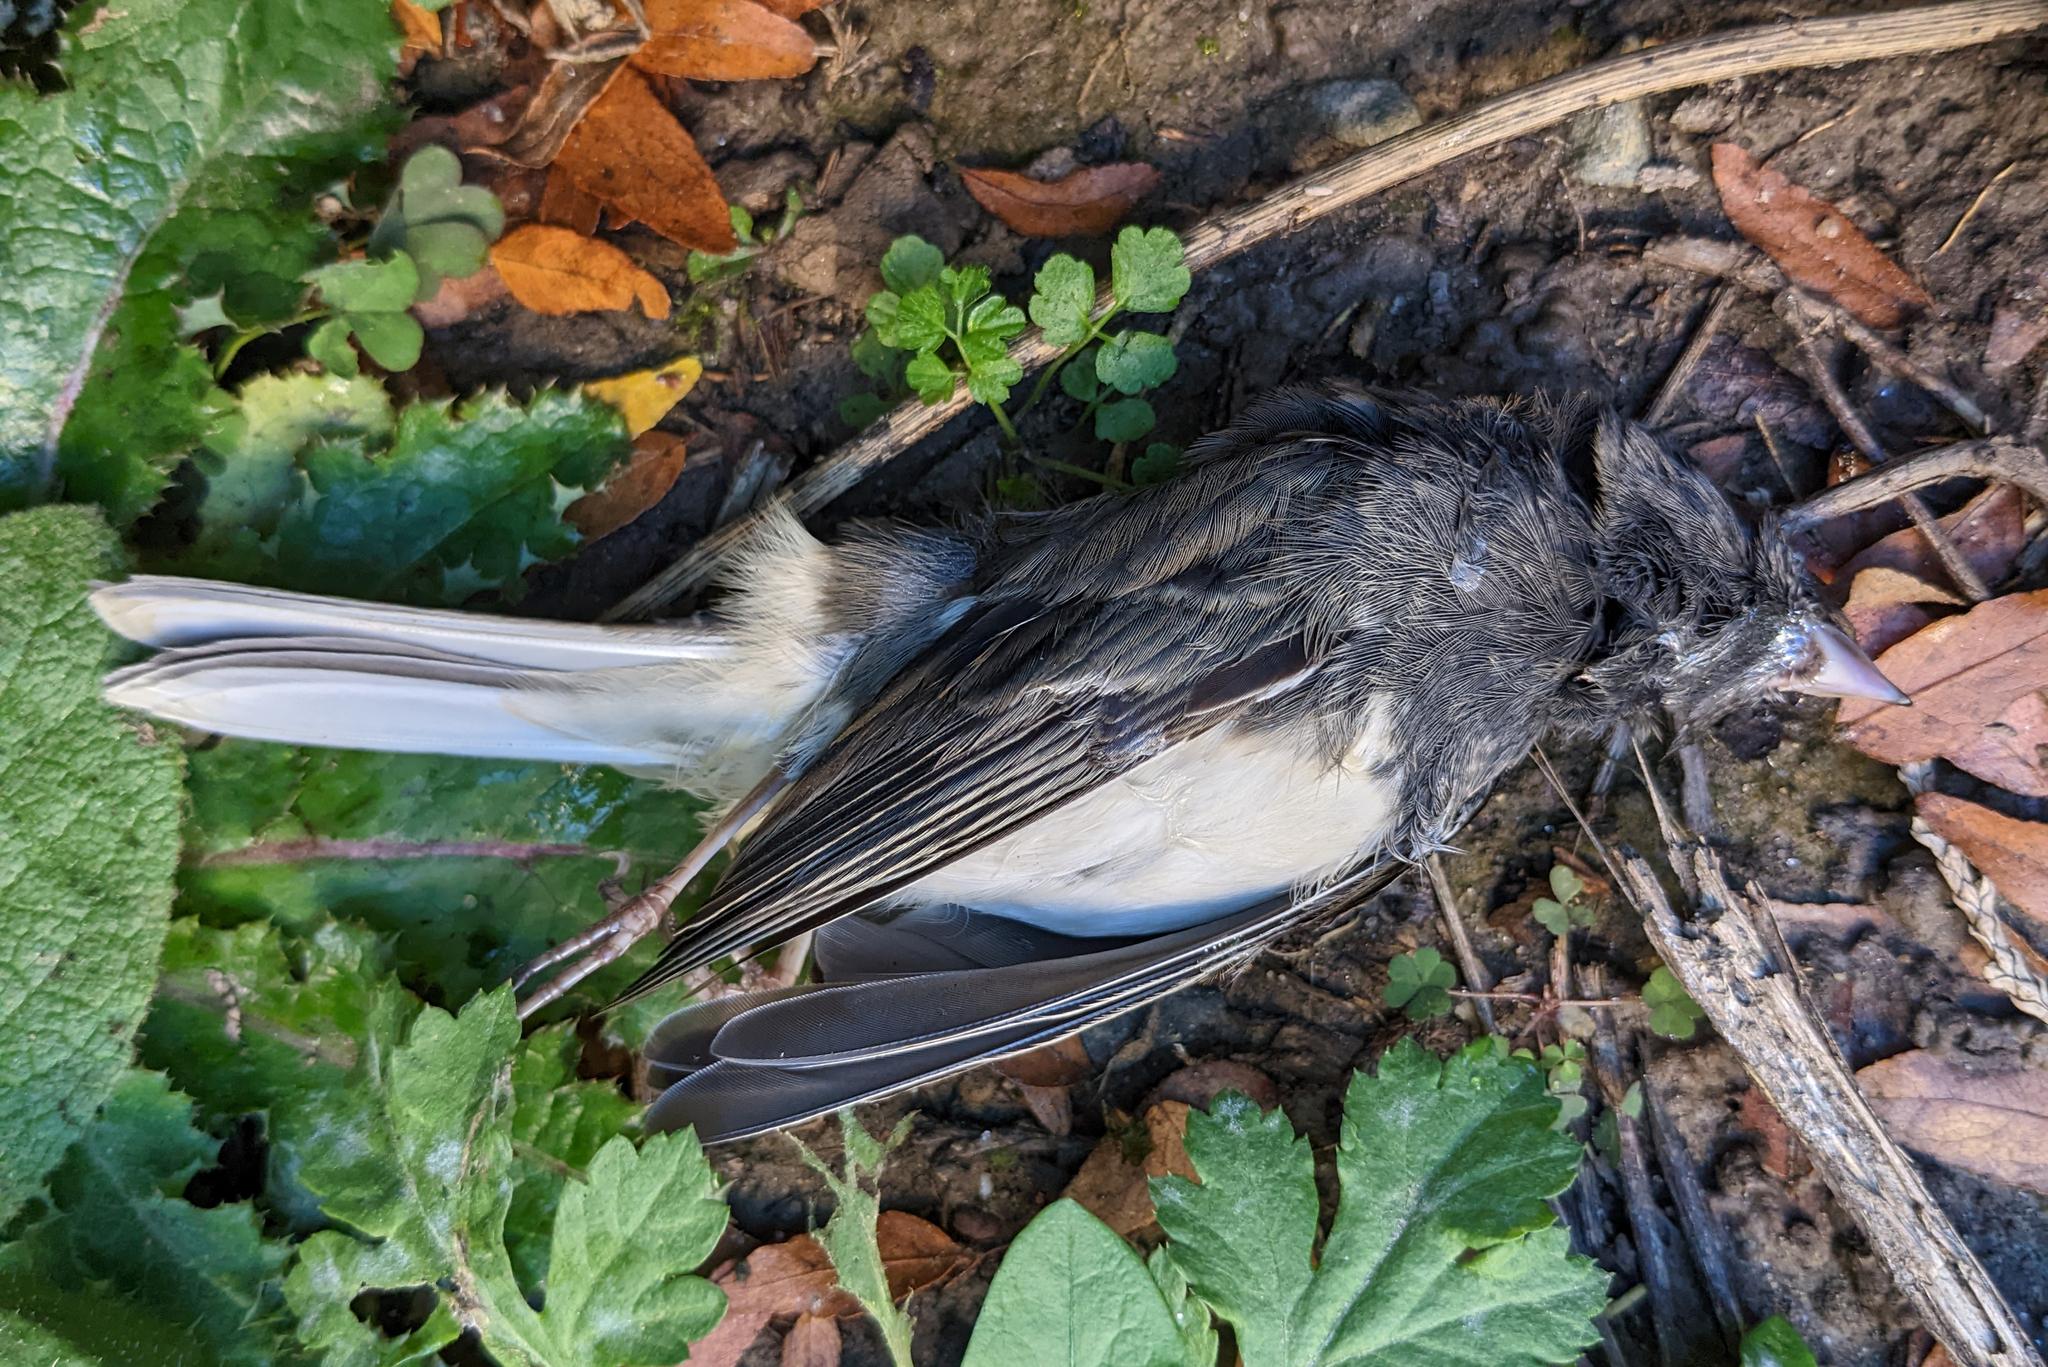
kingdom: Animalia
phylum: Chordata
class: Aves
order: Passeriformes
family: Passerellidae
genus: Junco
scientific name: Junco hyemalis
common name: Dark-eyed junco
